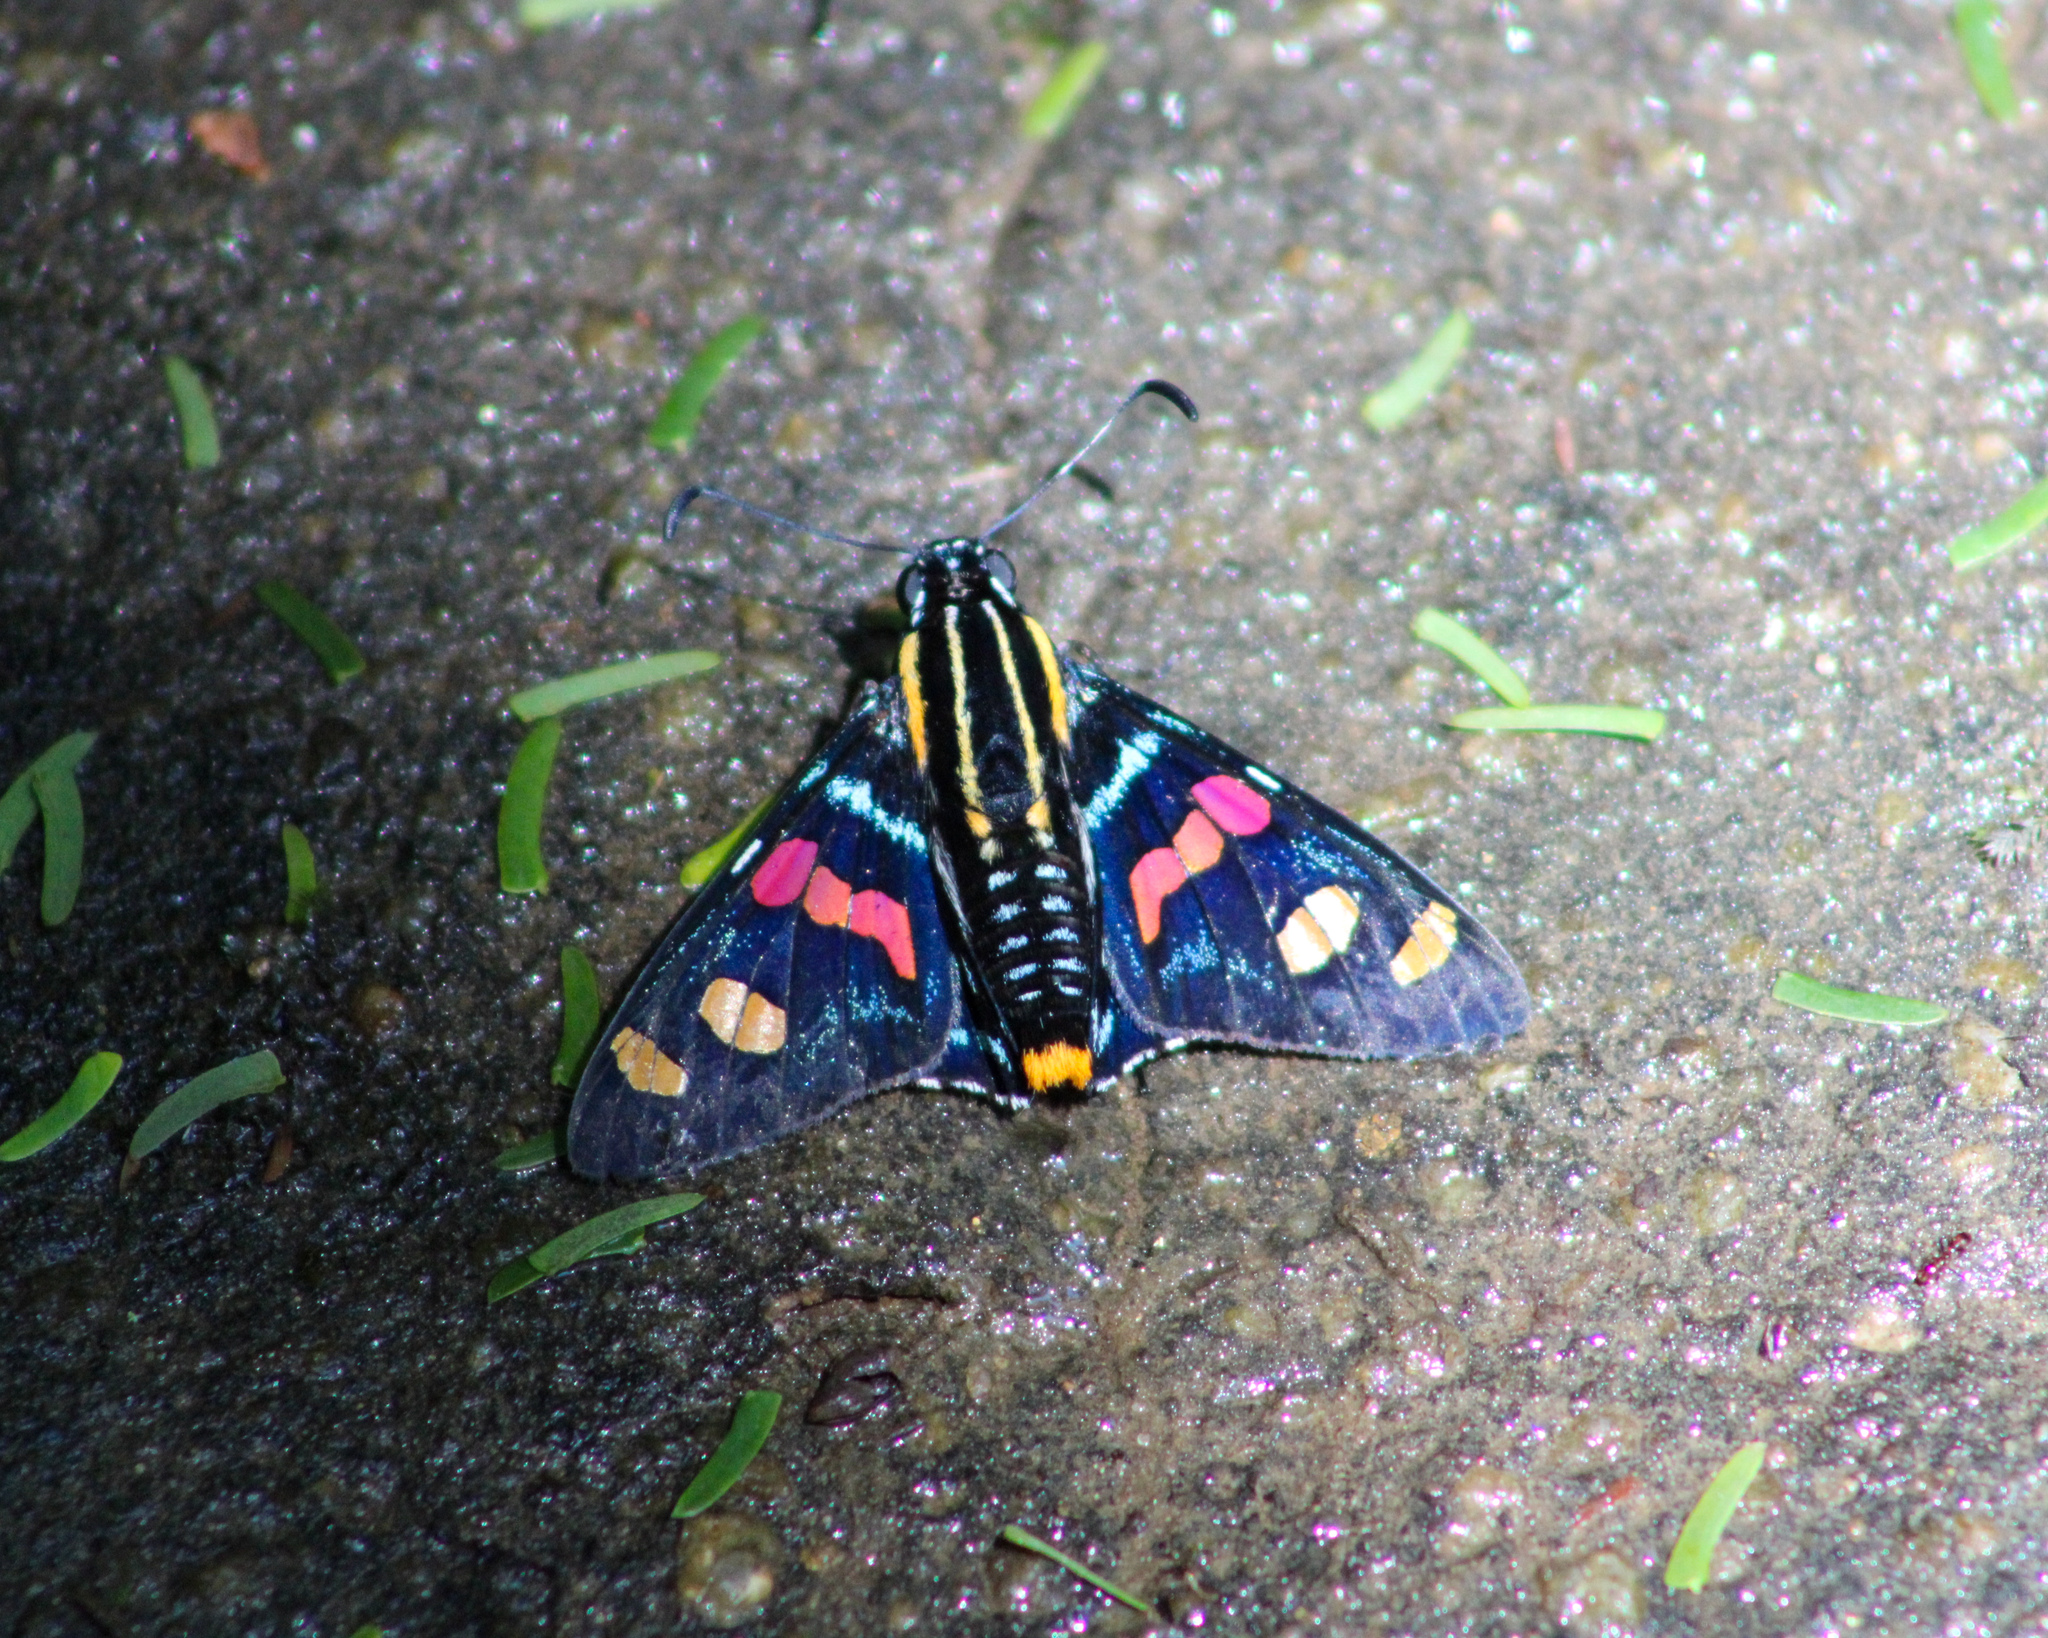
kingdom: Animalia
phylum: Arthropoda
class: Insecta
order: Lepidoptera
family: Hesperiidae
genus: Mimoniades
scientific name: Mimoniades versicolor
